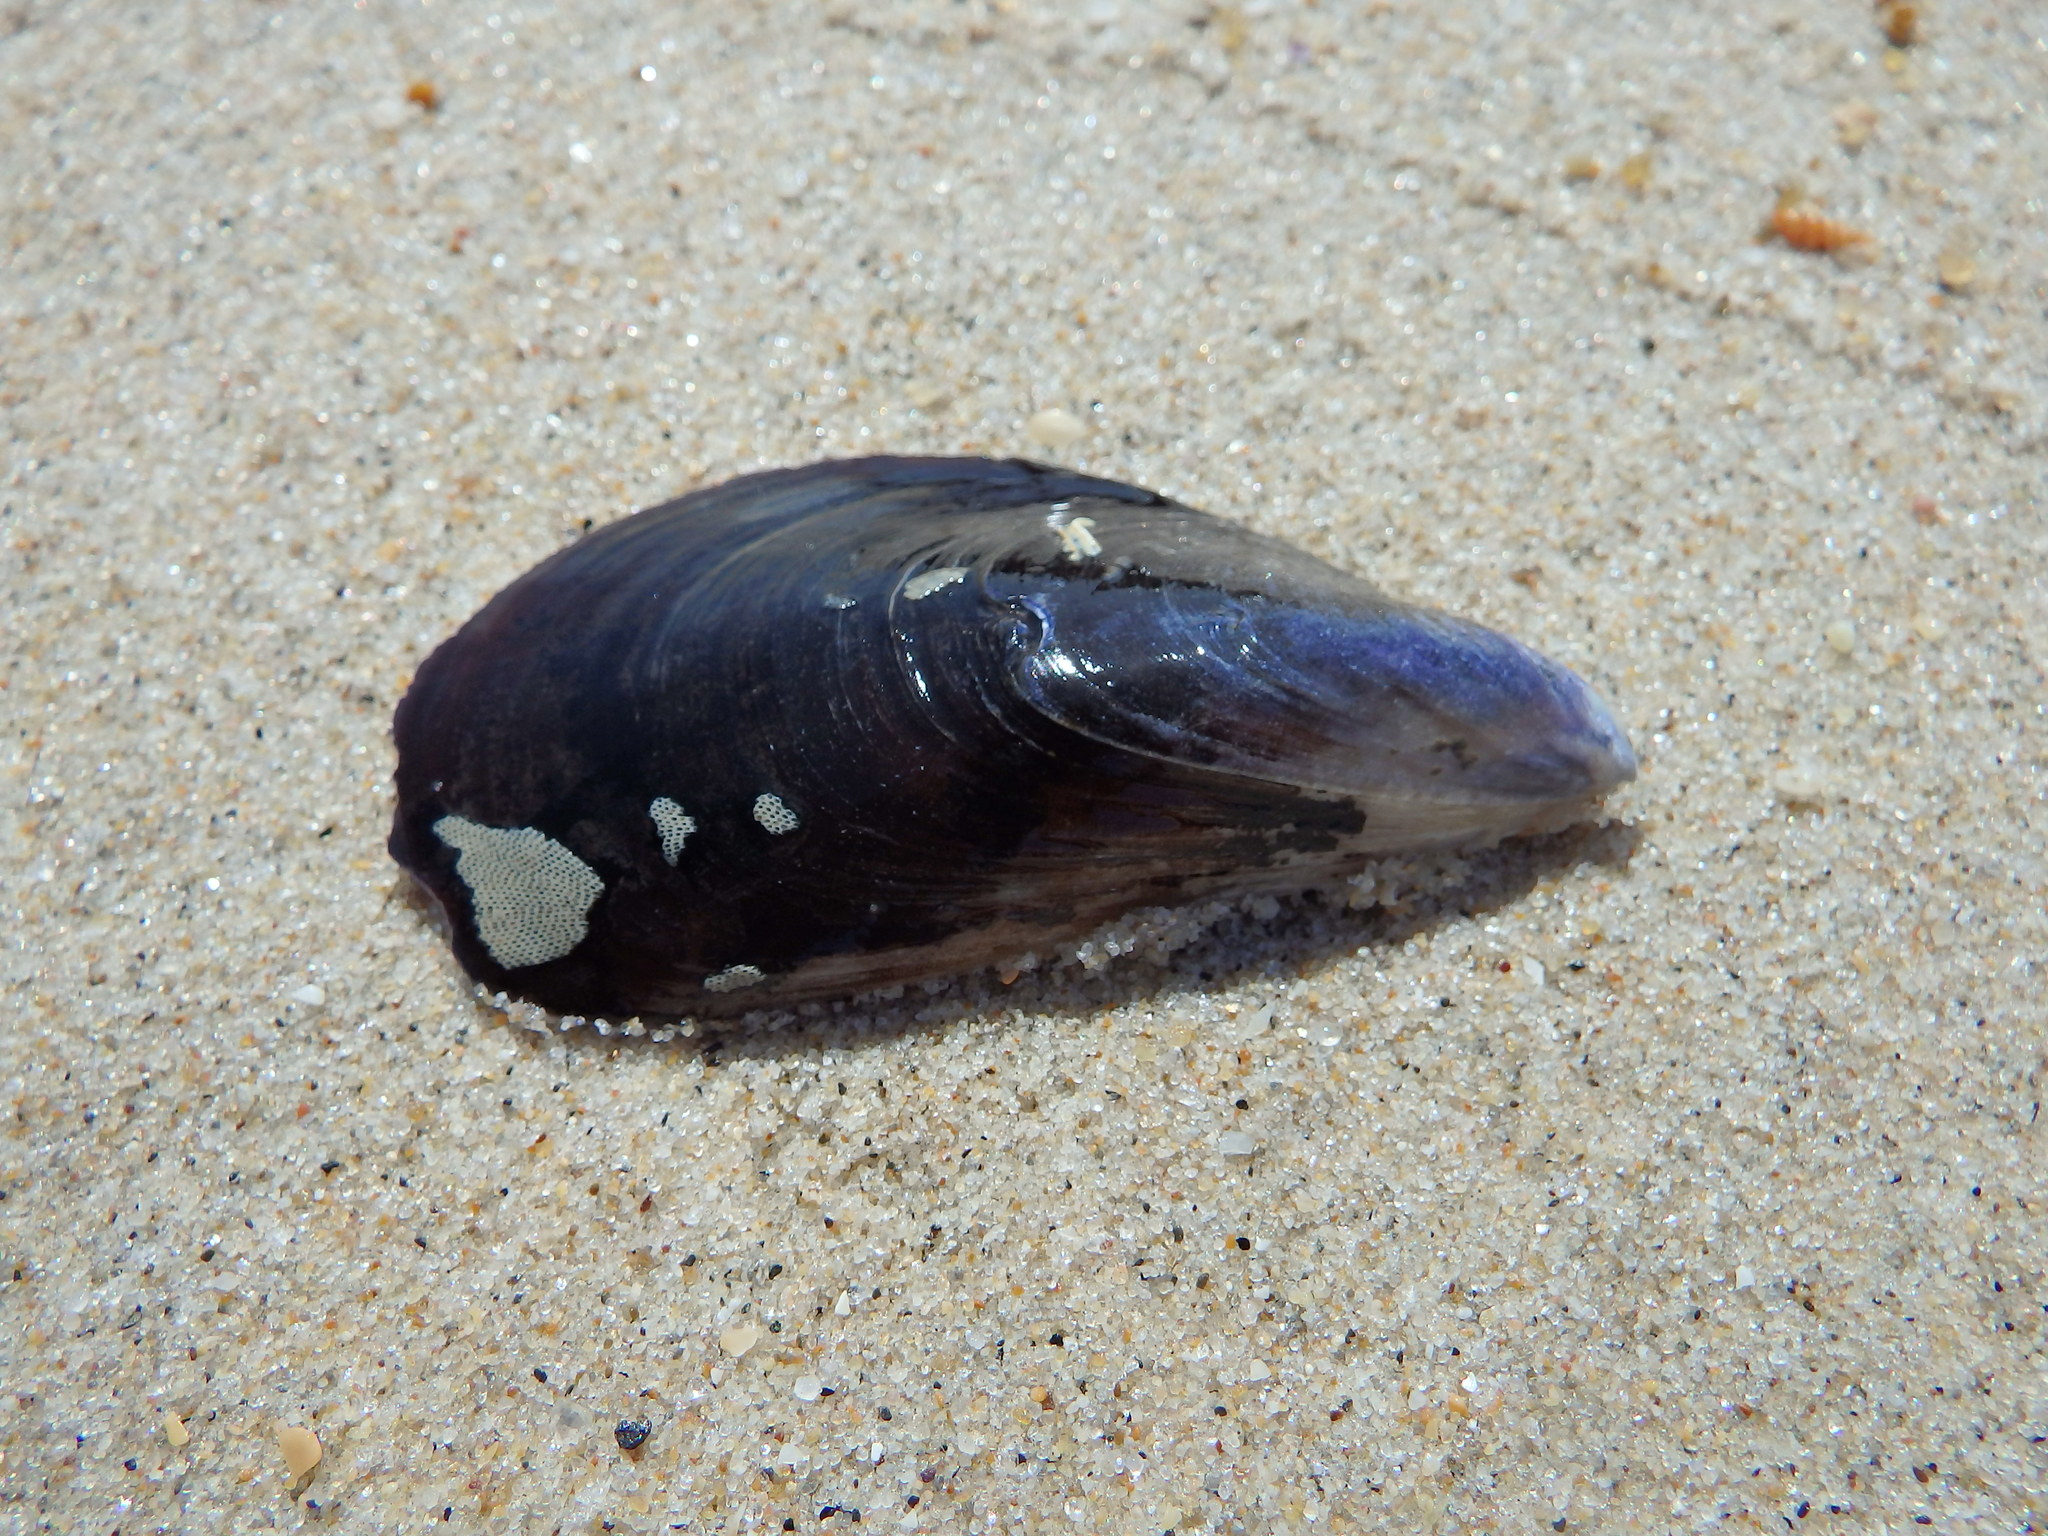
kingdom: Animalia
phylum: Mollusca
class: Bivalvia
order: Mytilida
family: Mytilidae
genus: Mytilus
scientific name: Mytilus galloprovincialis
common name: Mediterranean mussel
